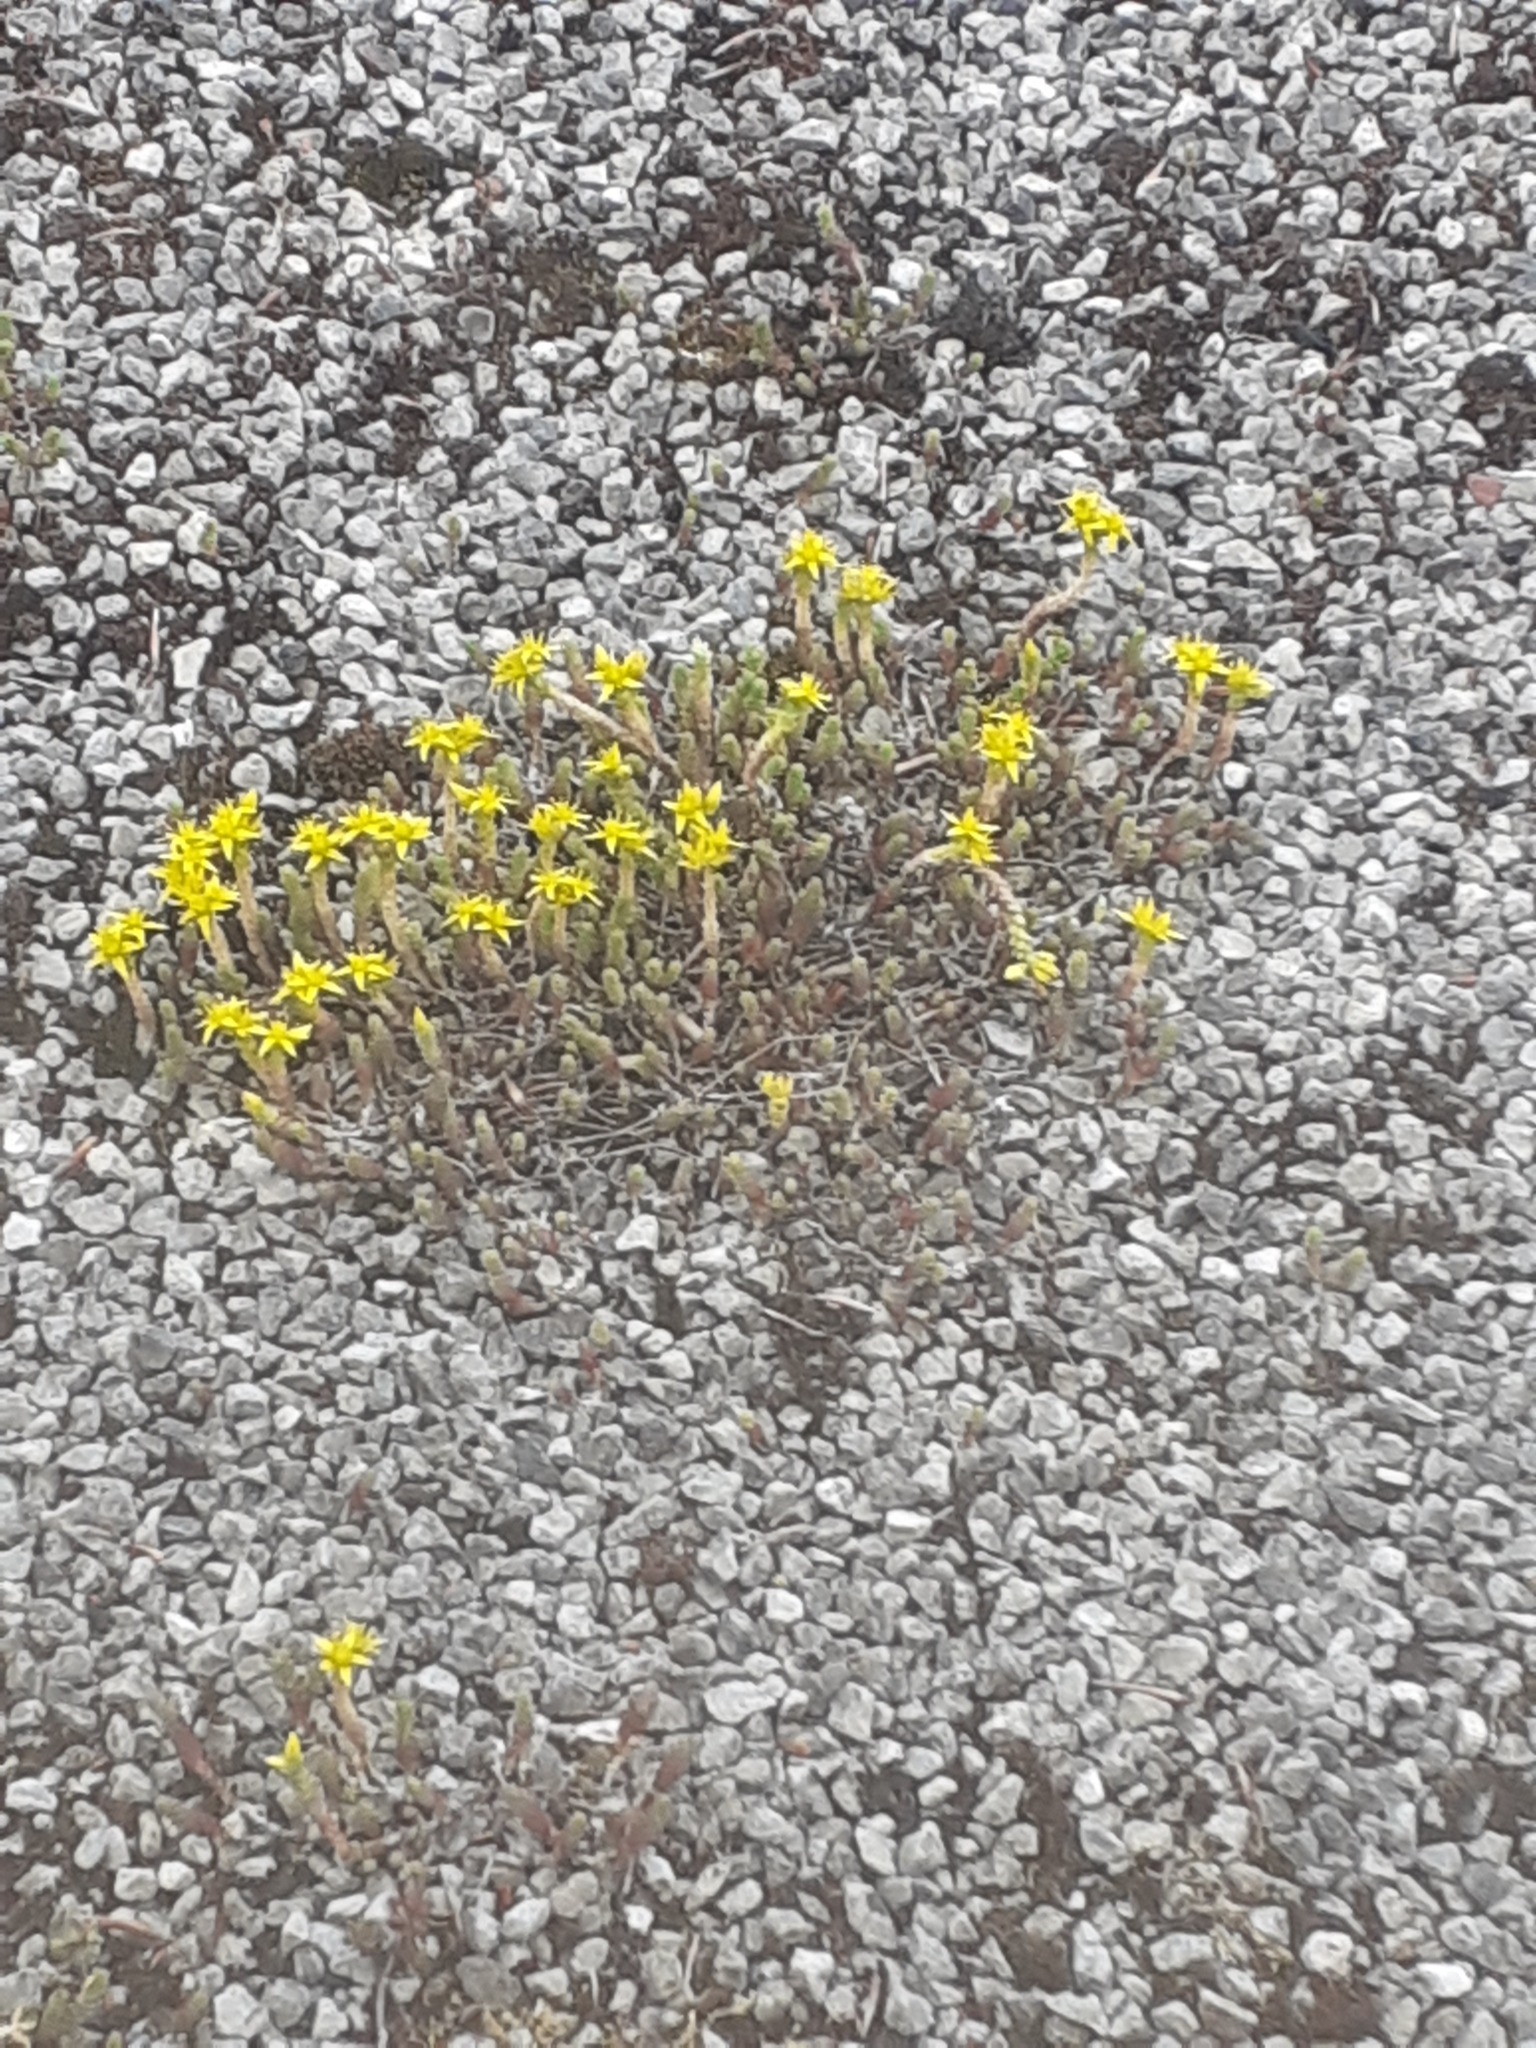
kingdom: Plantae
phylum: Tracheophyta
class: Magnoliopsida
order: Saxifragales
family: Crassulaceae
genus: Sedum
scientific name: Sedum acre
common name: Biting stonecrop
